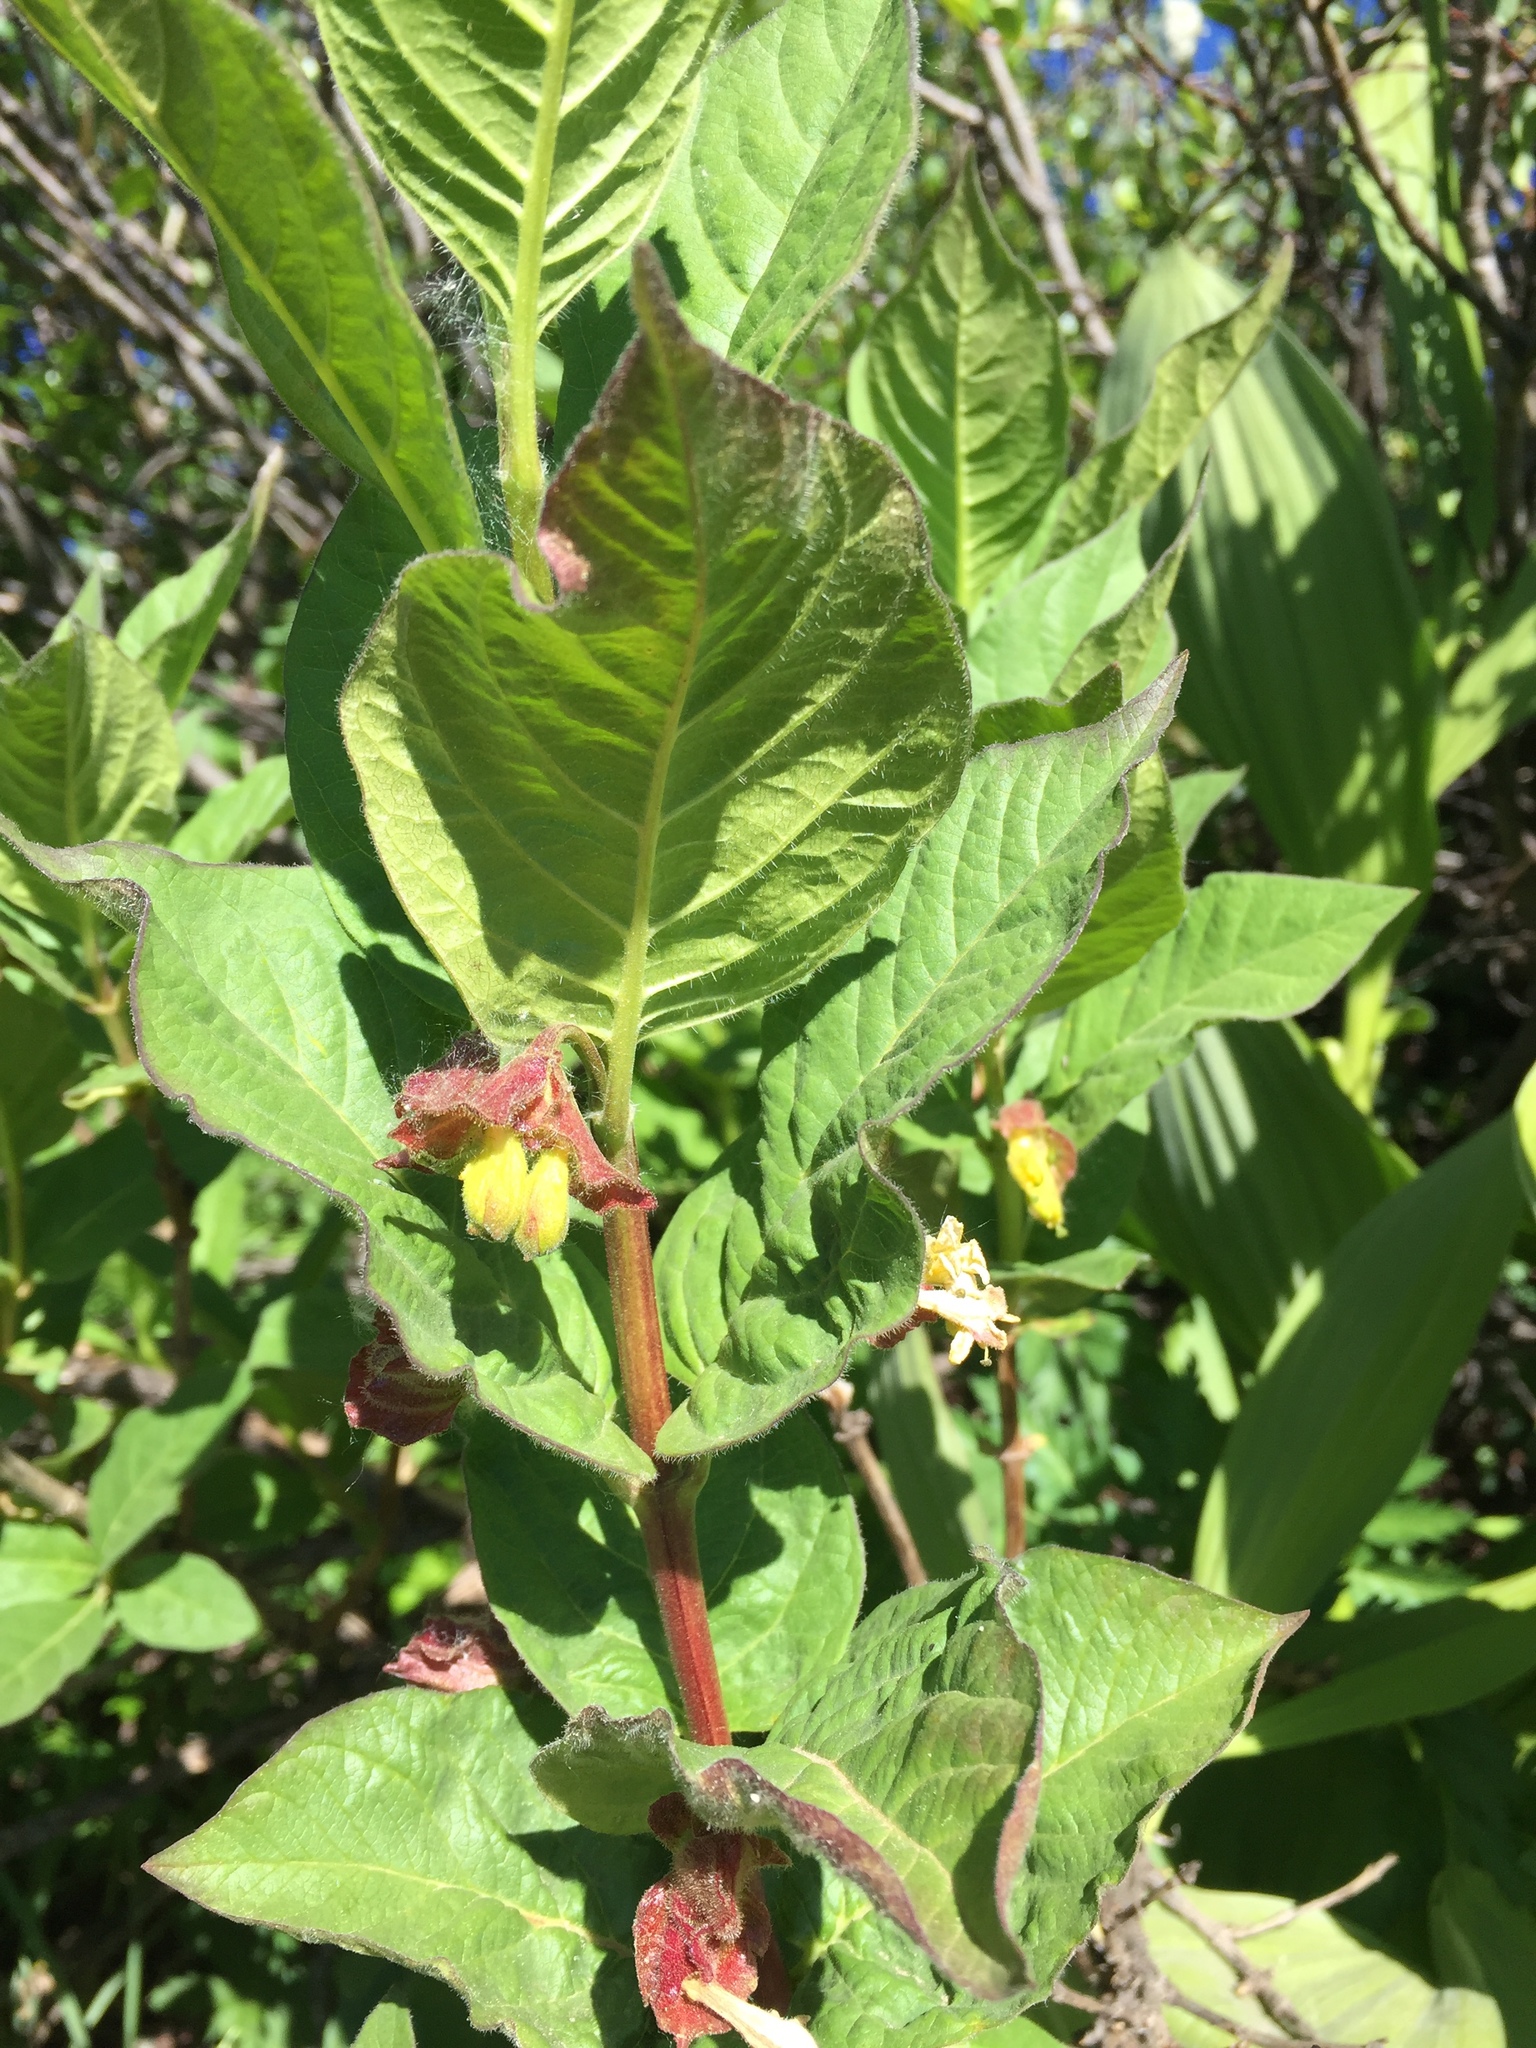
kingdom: Plantae
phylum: Tracheophyta
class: Magnoliopsida
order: Dipsacales
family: Caprifoliaceae
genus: Lonicera
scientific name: Lonicera involucrata
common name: Californian honeysuckle
